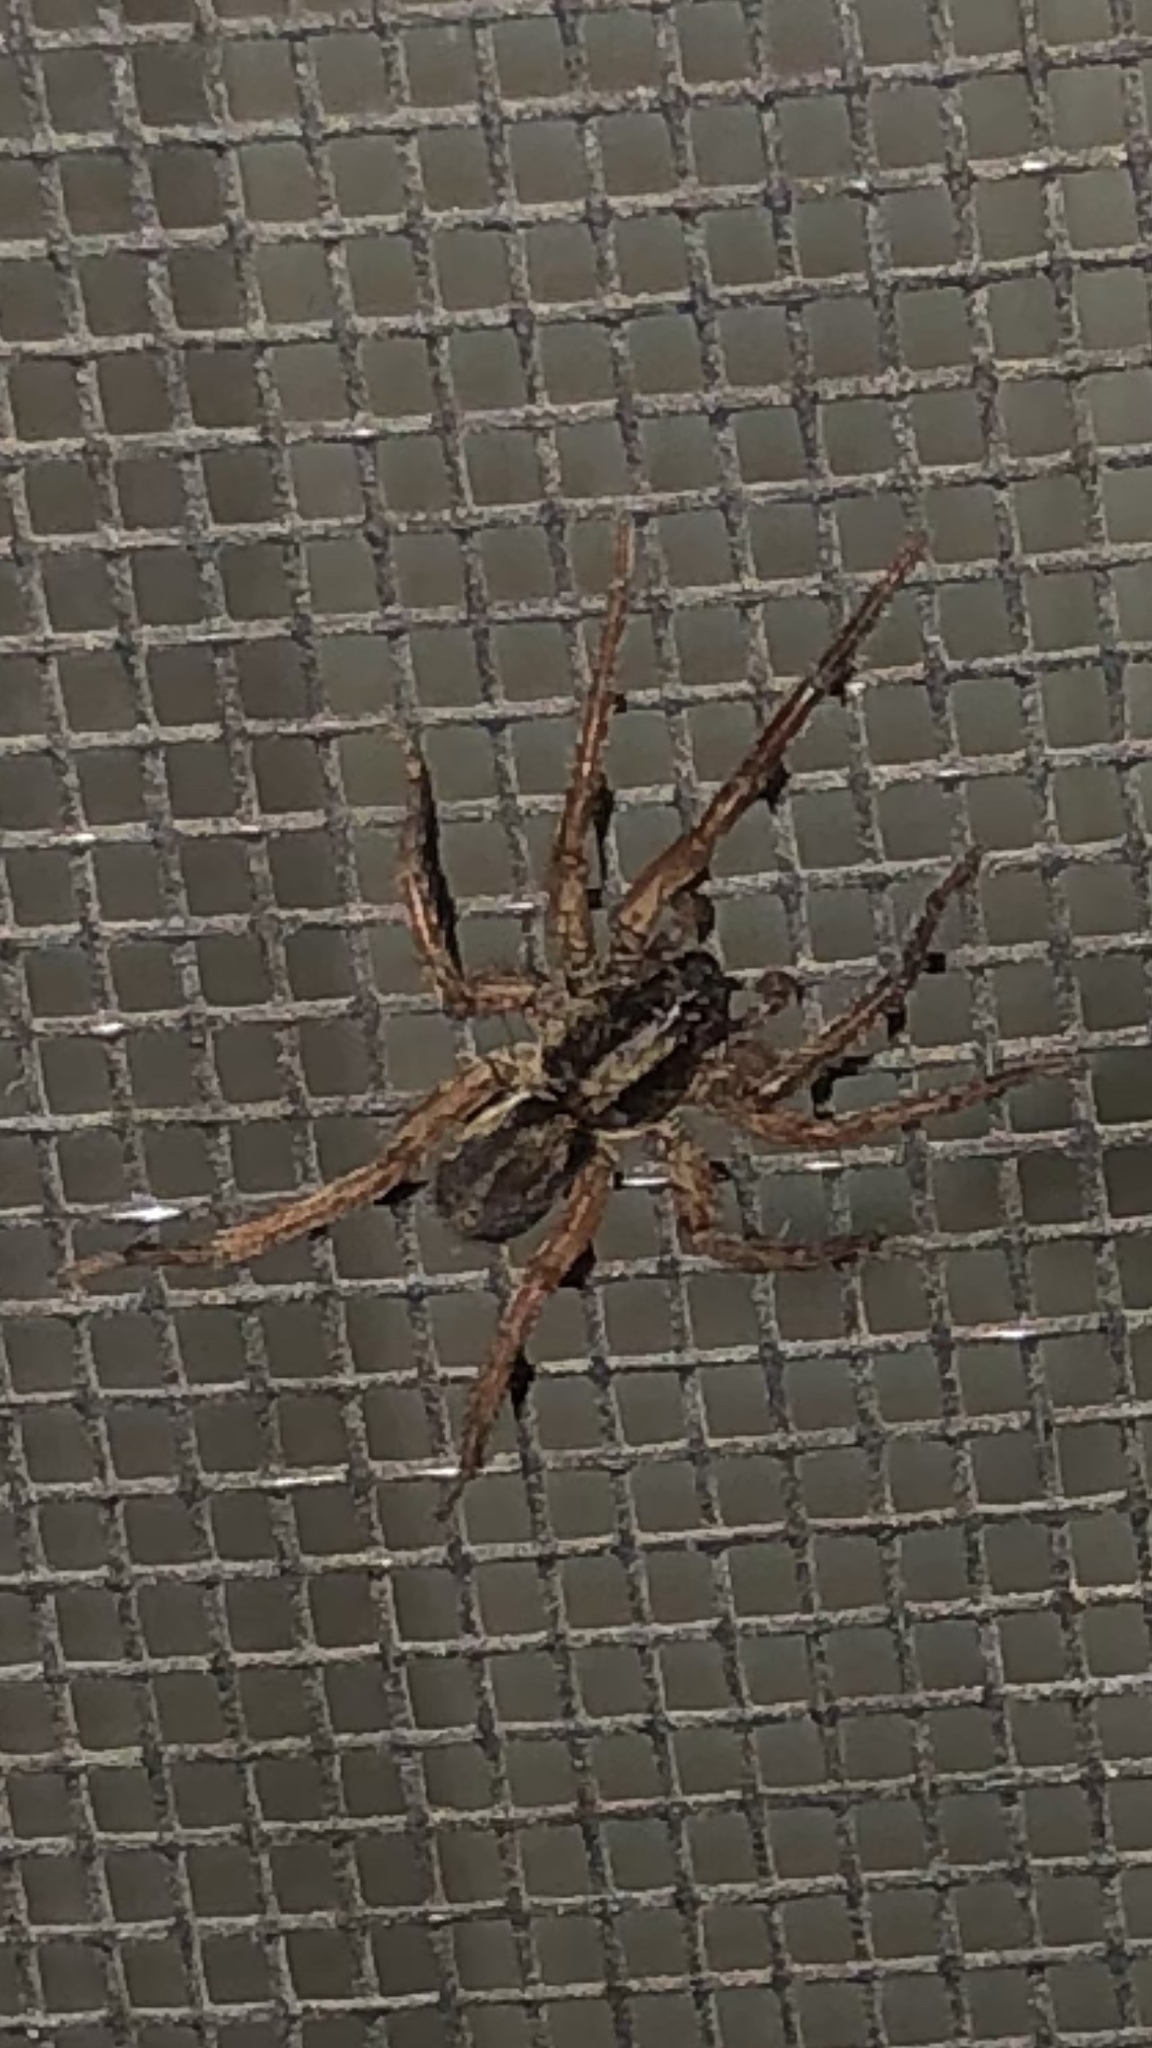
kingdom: Animalia
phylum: Arthropoda
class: Arachnida
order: Araneae
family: Lycosidae
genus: Trochosa
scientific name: Trochosa sepulchralis
